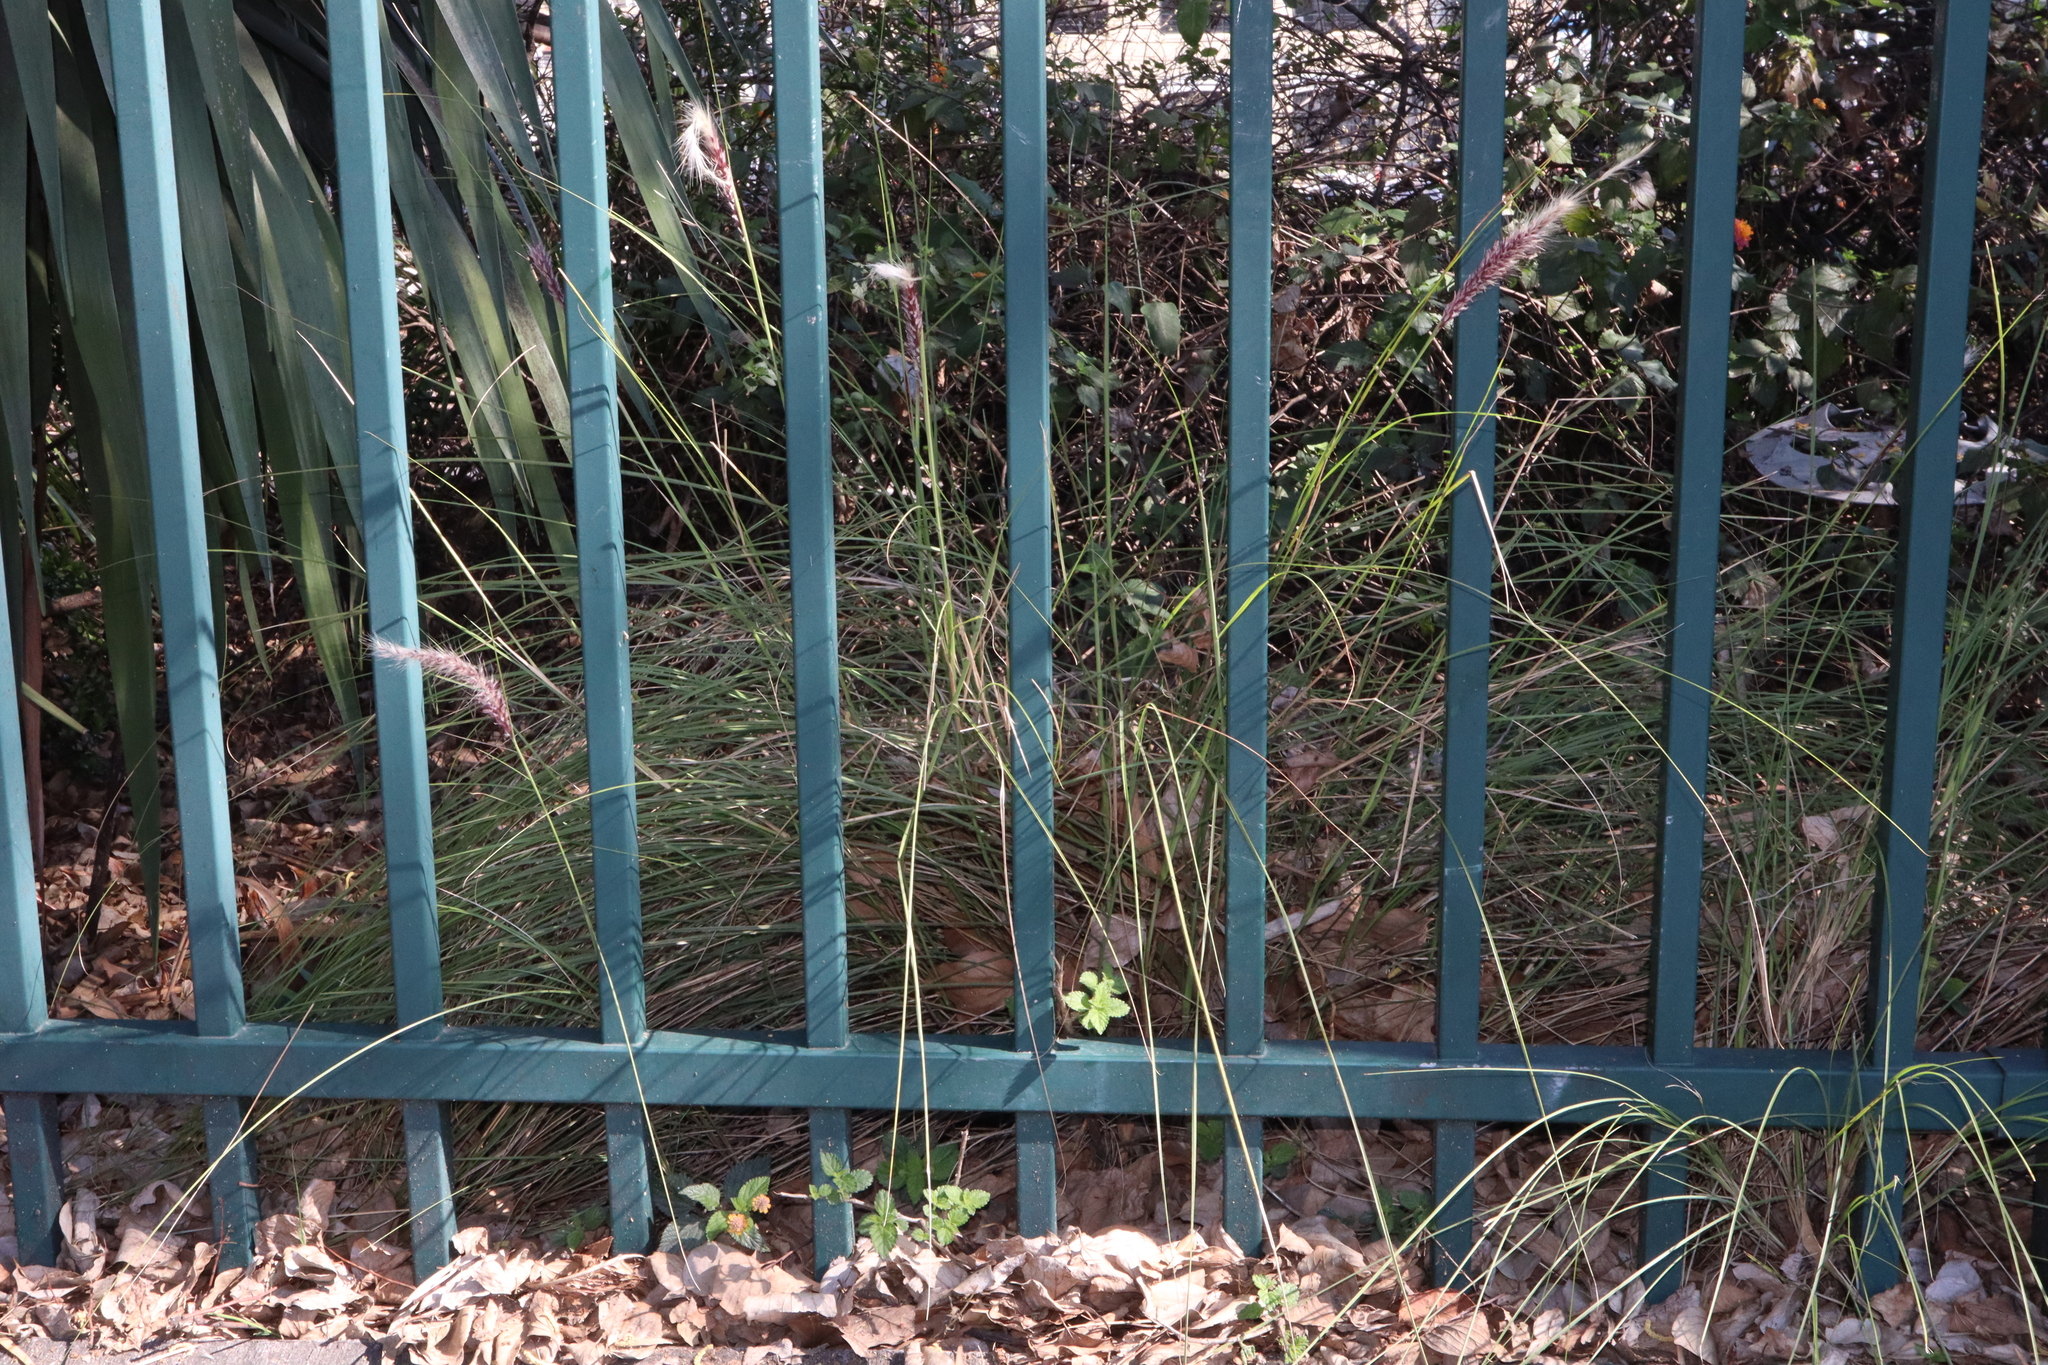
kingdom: Plantae
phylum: Tracheophyta
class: Liliopsida
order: Poales
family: Poaceae
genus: Cenchrus
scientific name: Cenchrus setaceus
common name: Crimson fountaingrass
